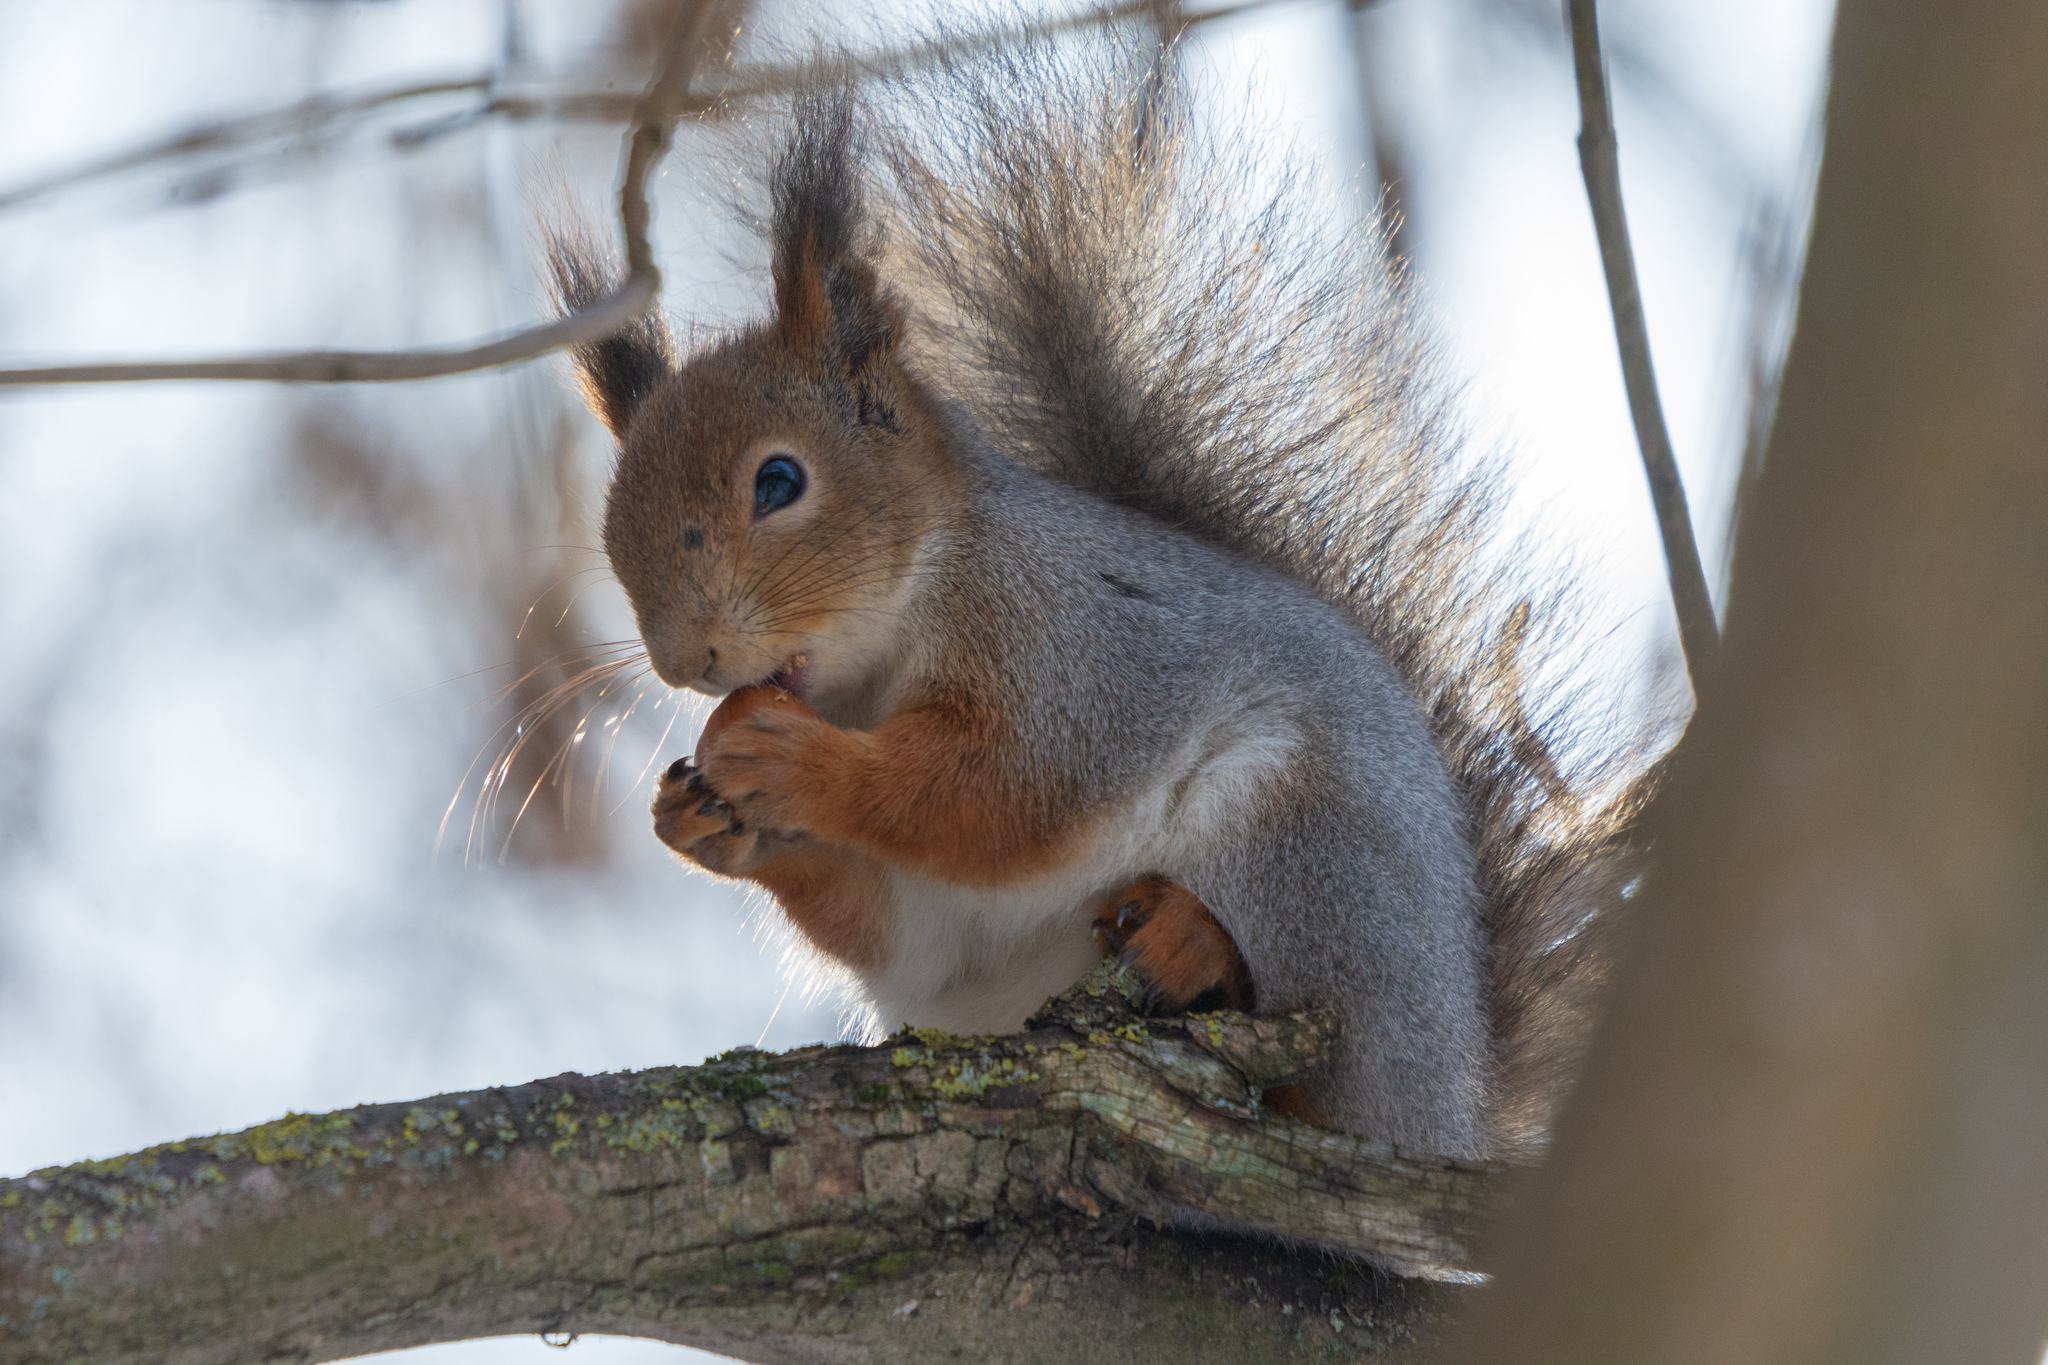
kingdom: Animalia
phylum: Chordata
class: Mammalia
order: Rodentia
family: Sciuridae
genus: Sciurus
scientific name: Sciurus vulgaris
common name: Eurasian red squirrel
